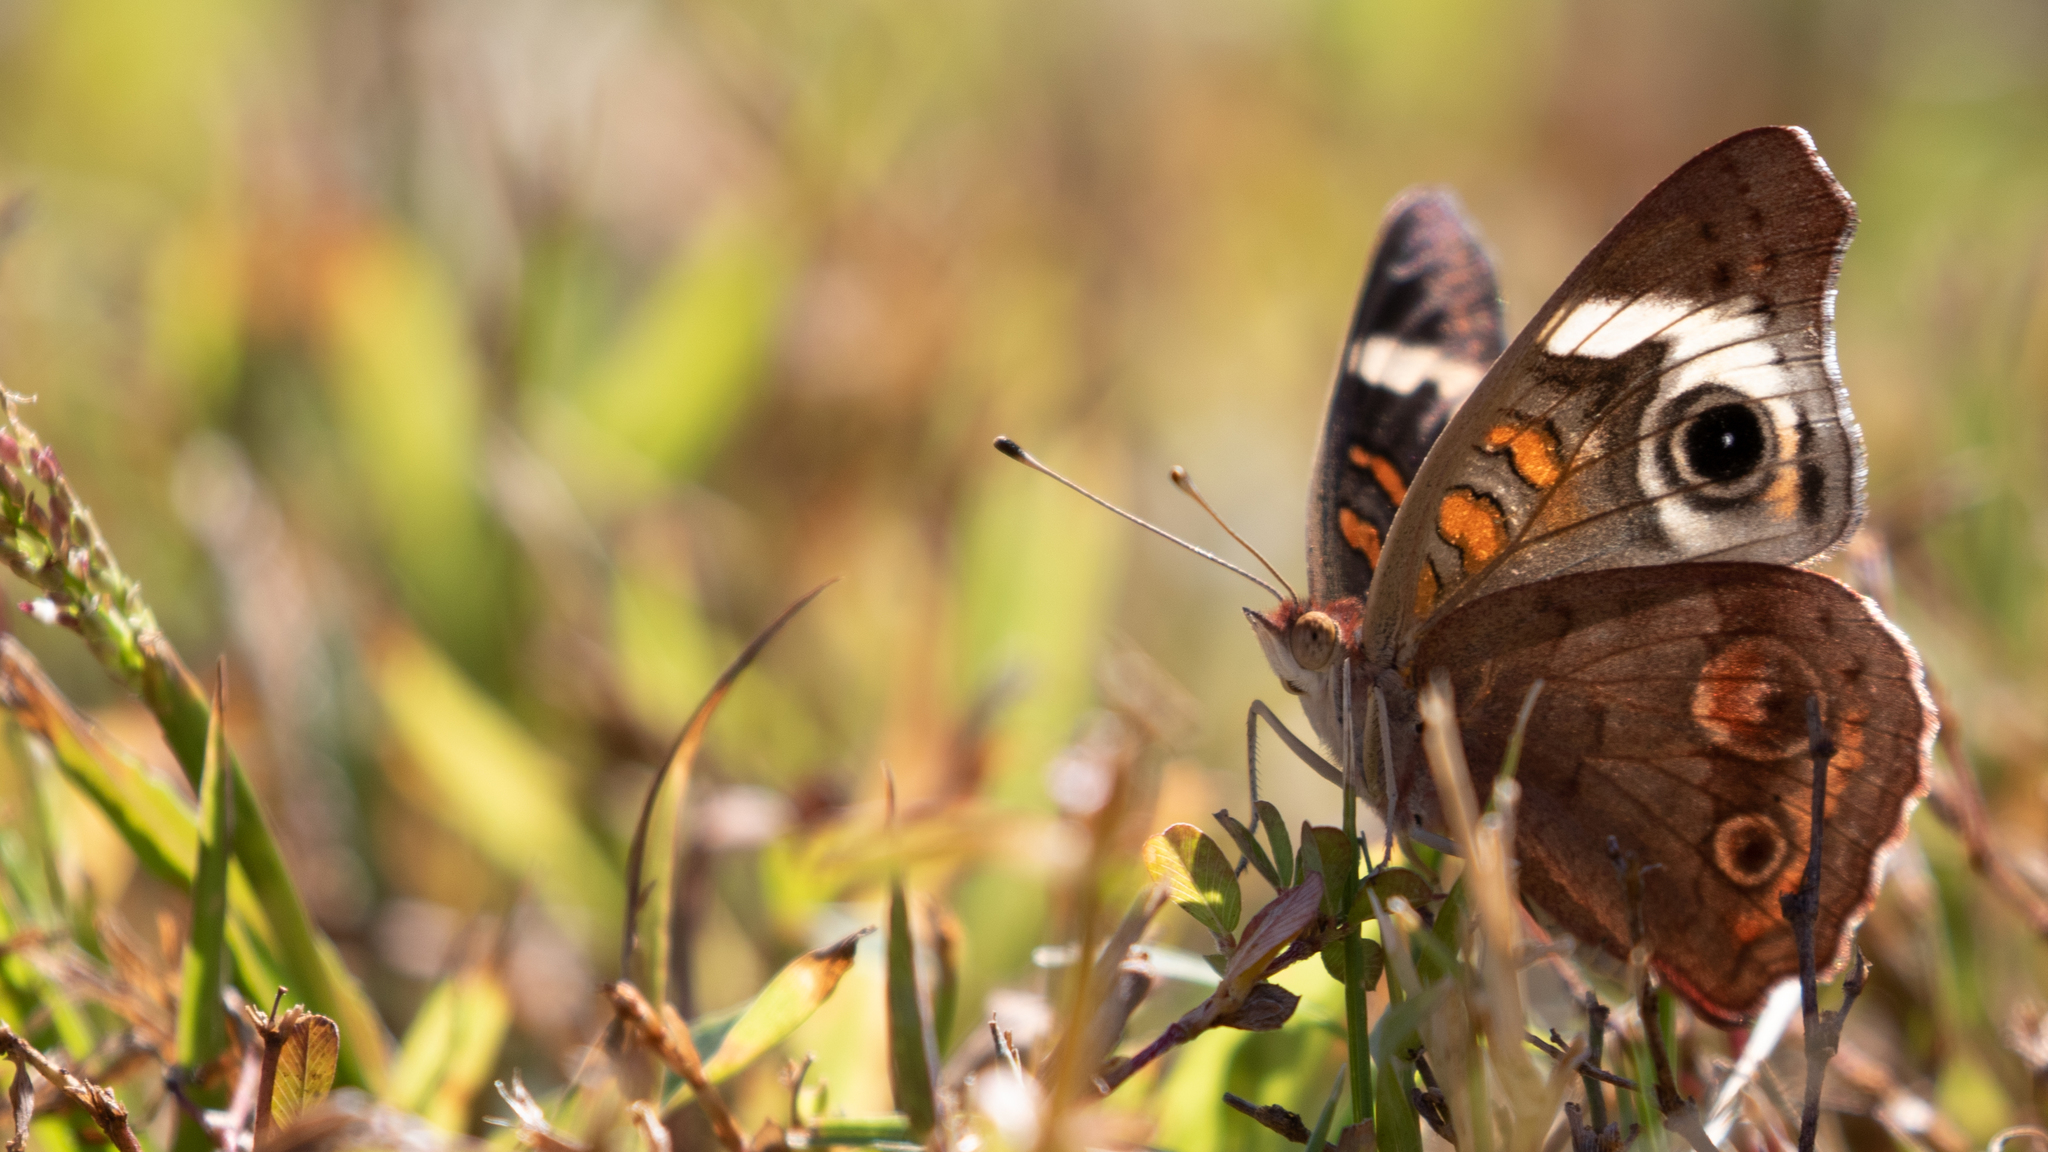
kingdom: Animalia
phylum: Arthropoda
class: Insecta
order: Lepidoptera
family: Nymphalidae
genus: Junonia
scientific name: Junonia coenia
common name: Common buckeye
